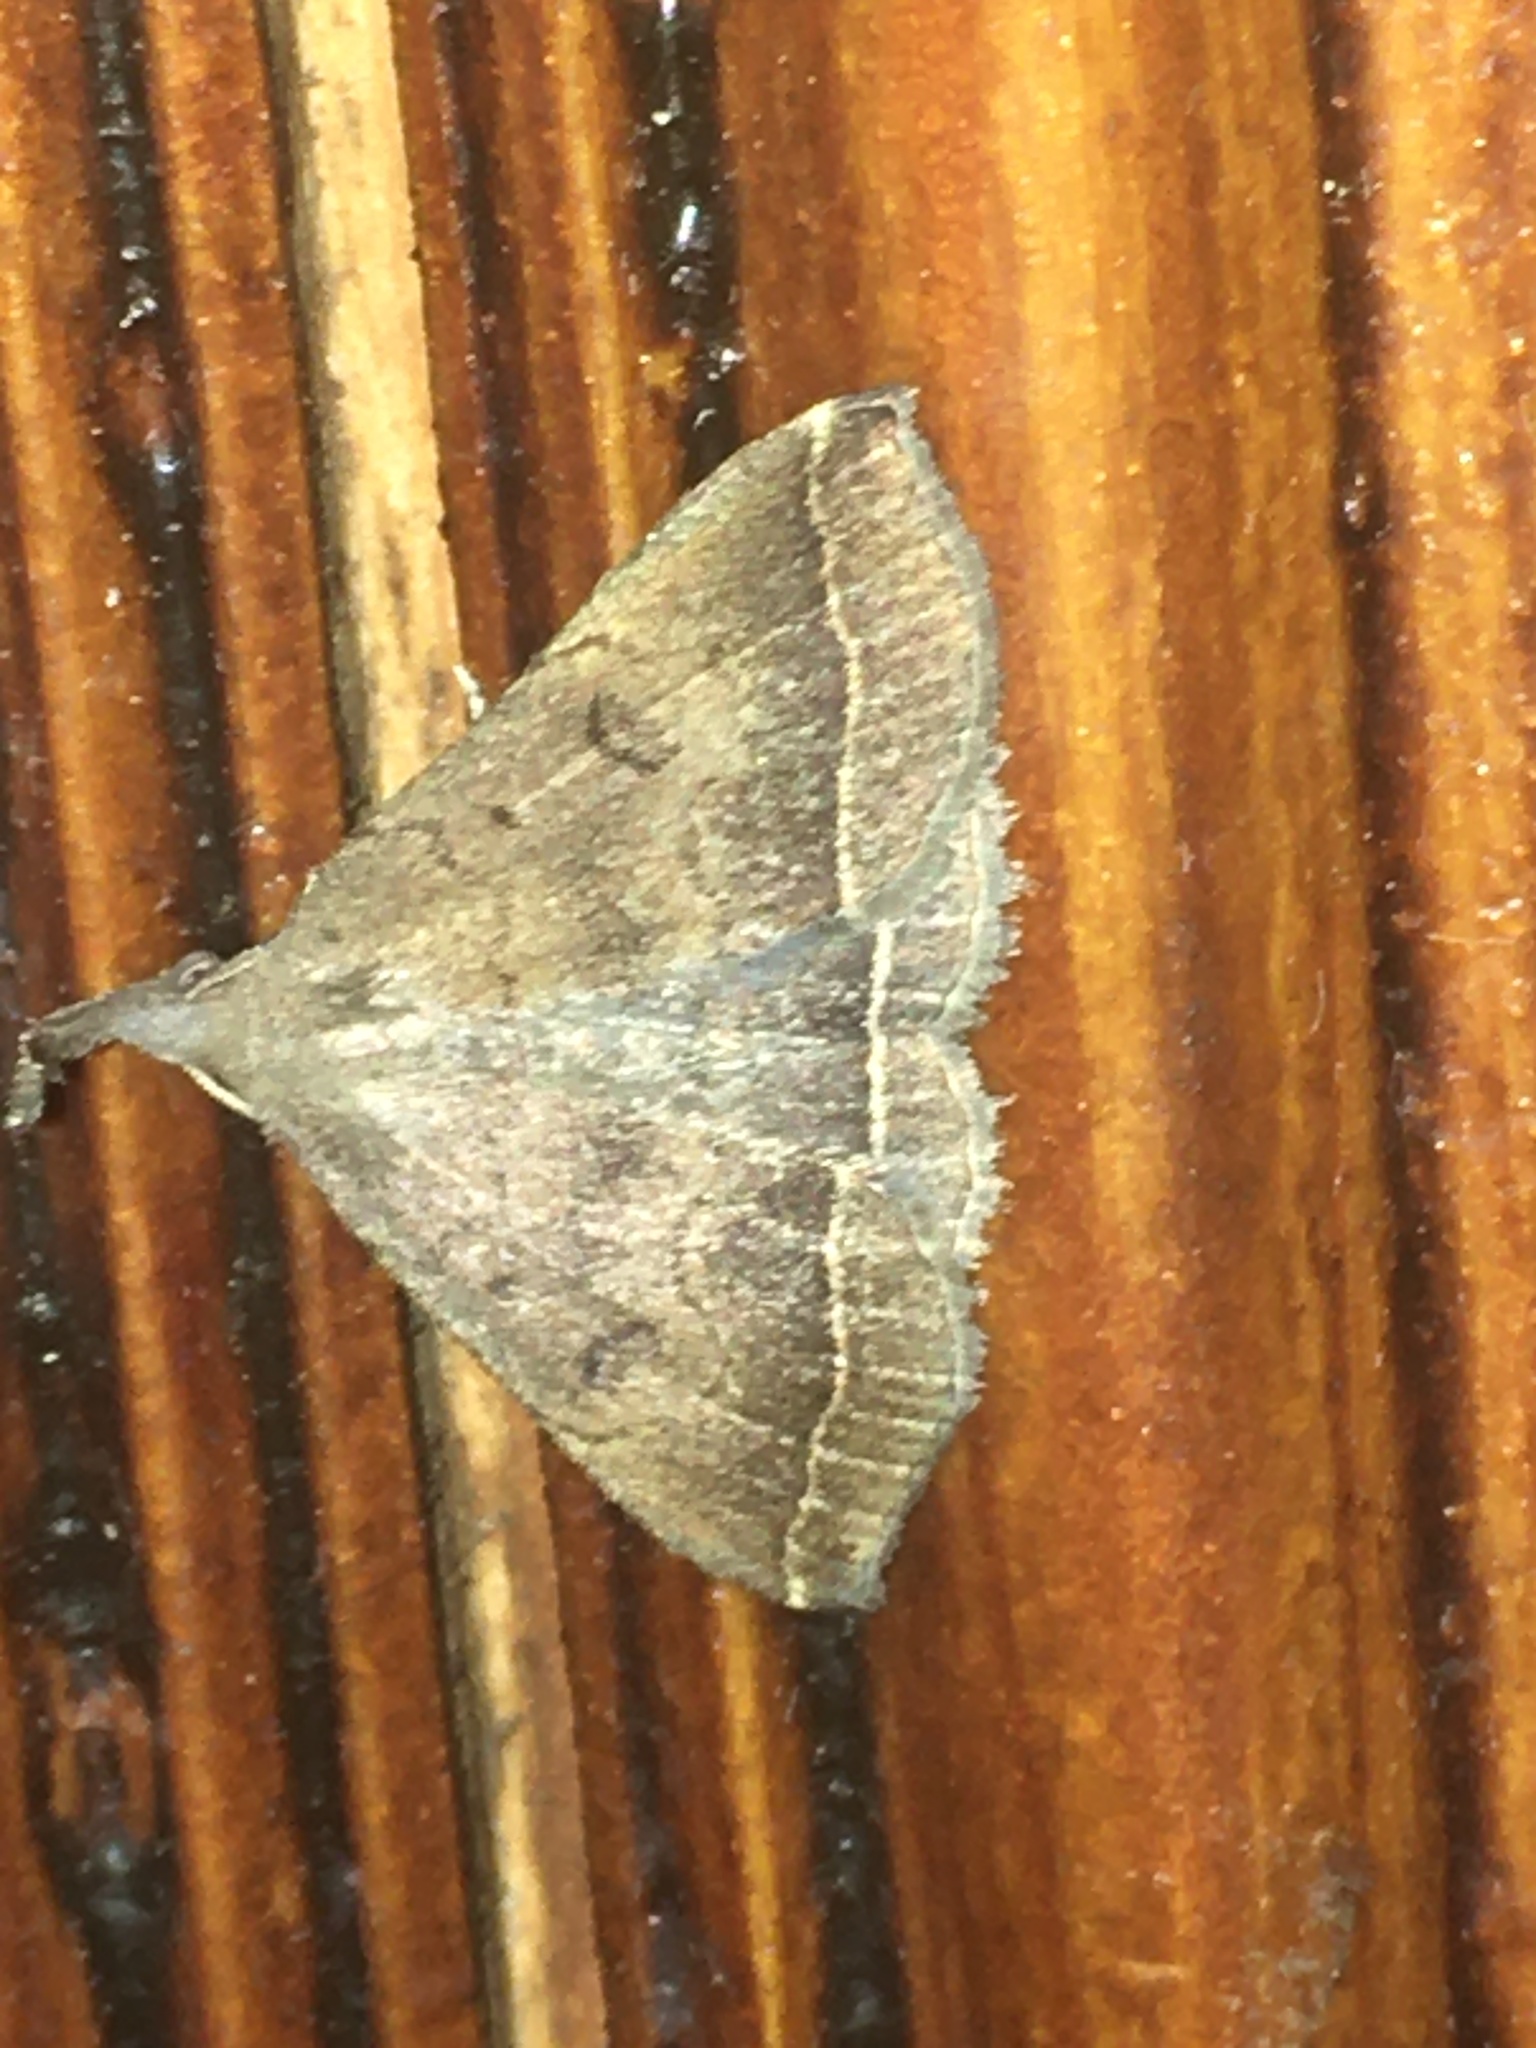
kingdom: Animalia
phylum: Arthropoda
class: Insecta
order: Lepidoptera
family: Erebidae
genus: Pechipogo
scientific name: Pechipogo plumigeralis
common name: Plumed fan-foot
